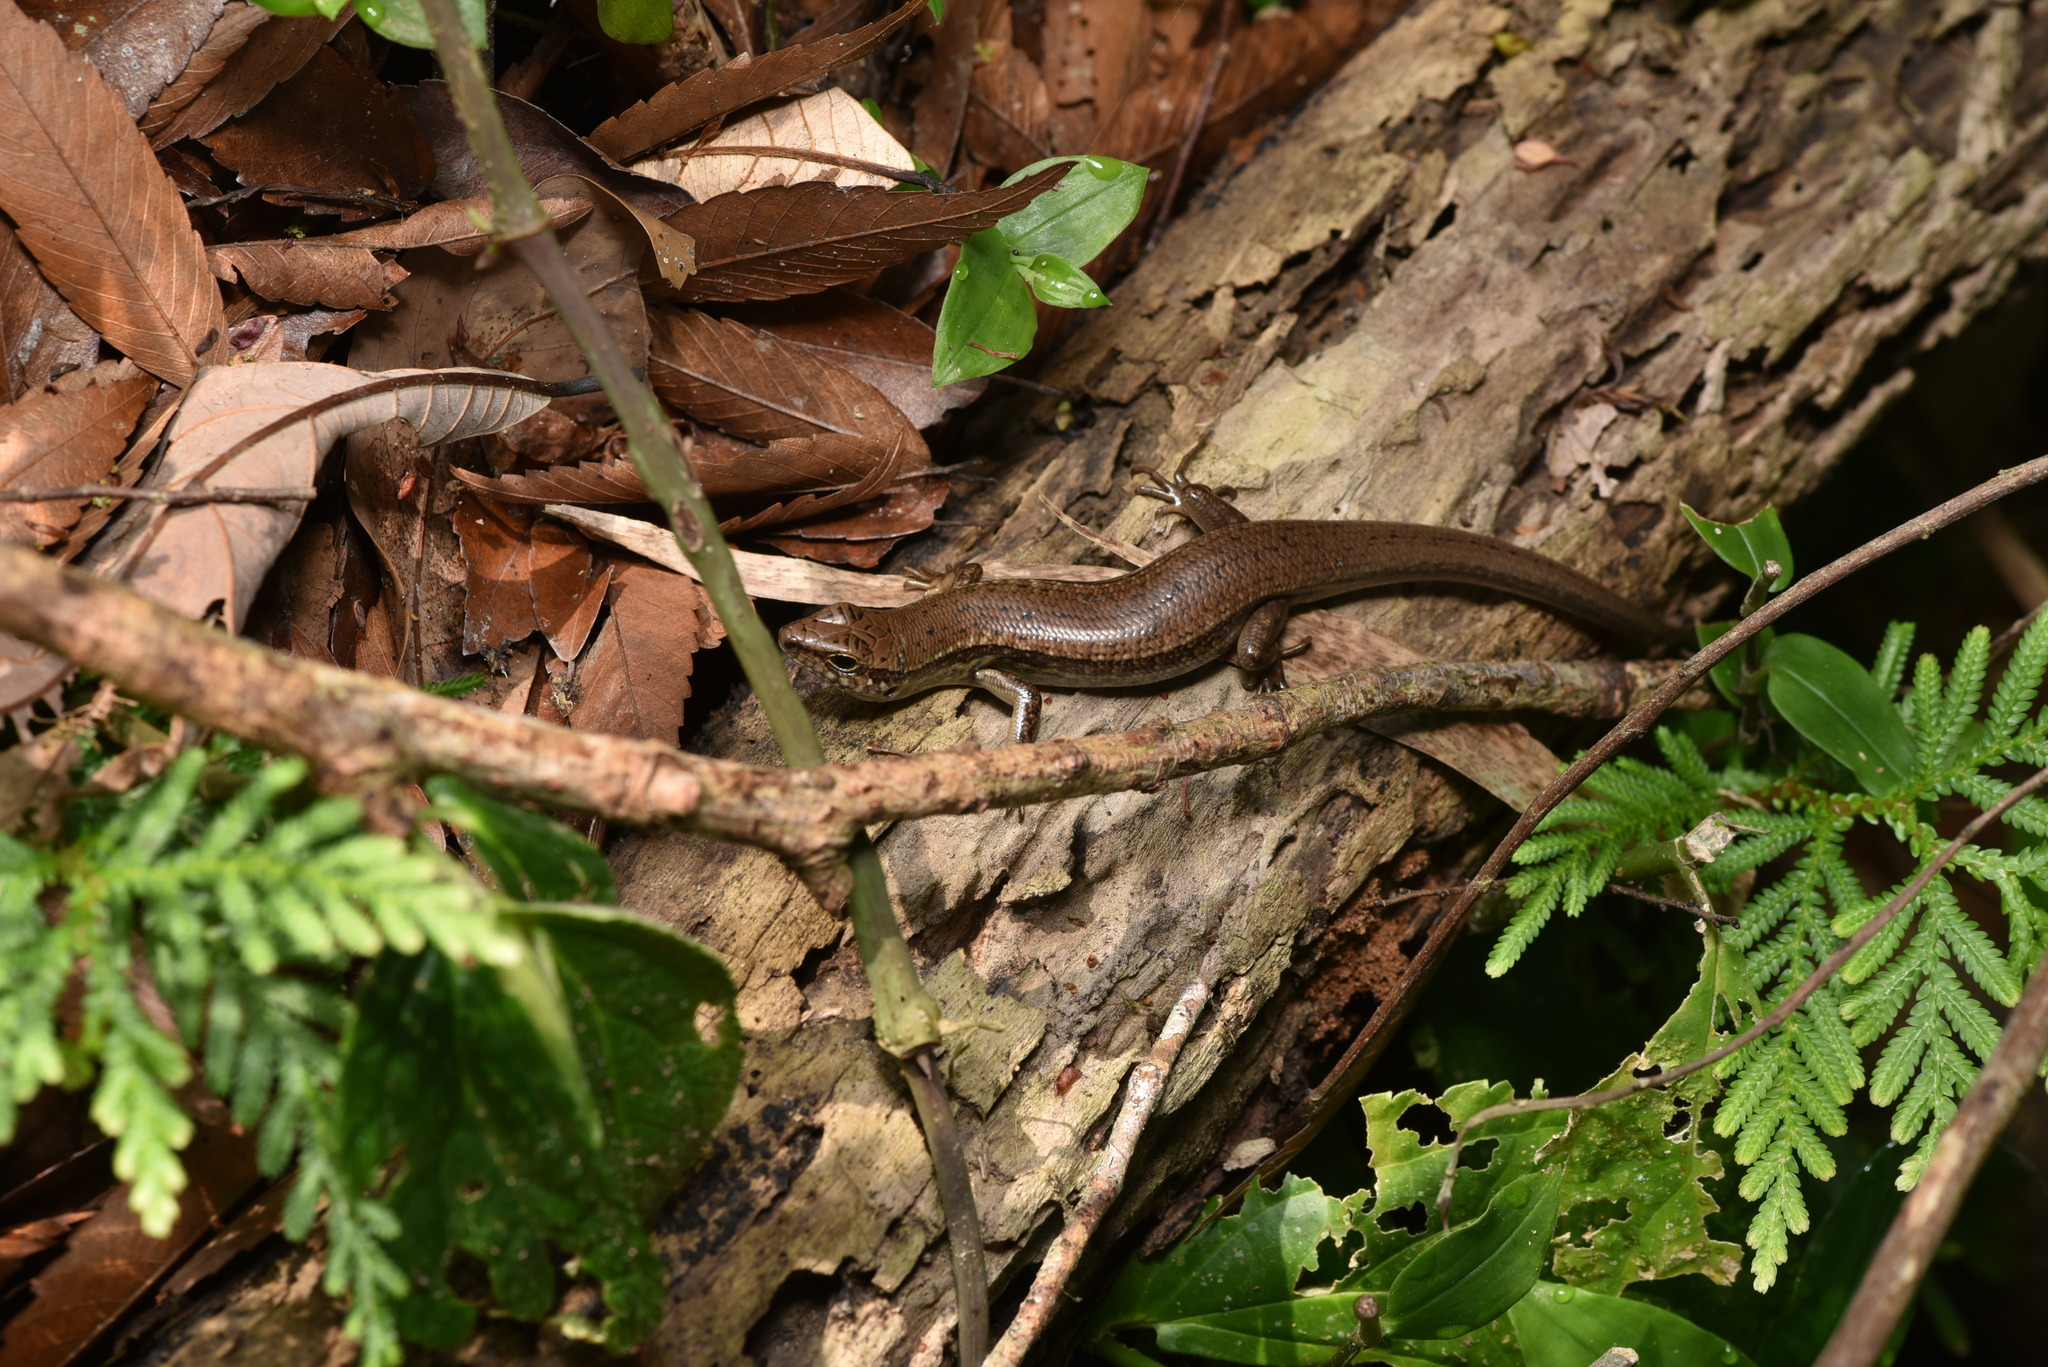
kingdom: Animalia
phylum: Chordata
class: Squamata
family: Scincidae
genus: Sphenomorphus
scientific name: Sphenomorphus indicus
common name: Himalayan forest skink
